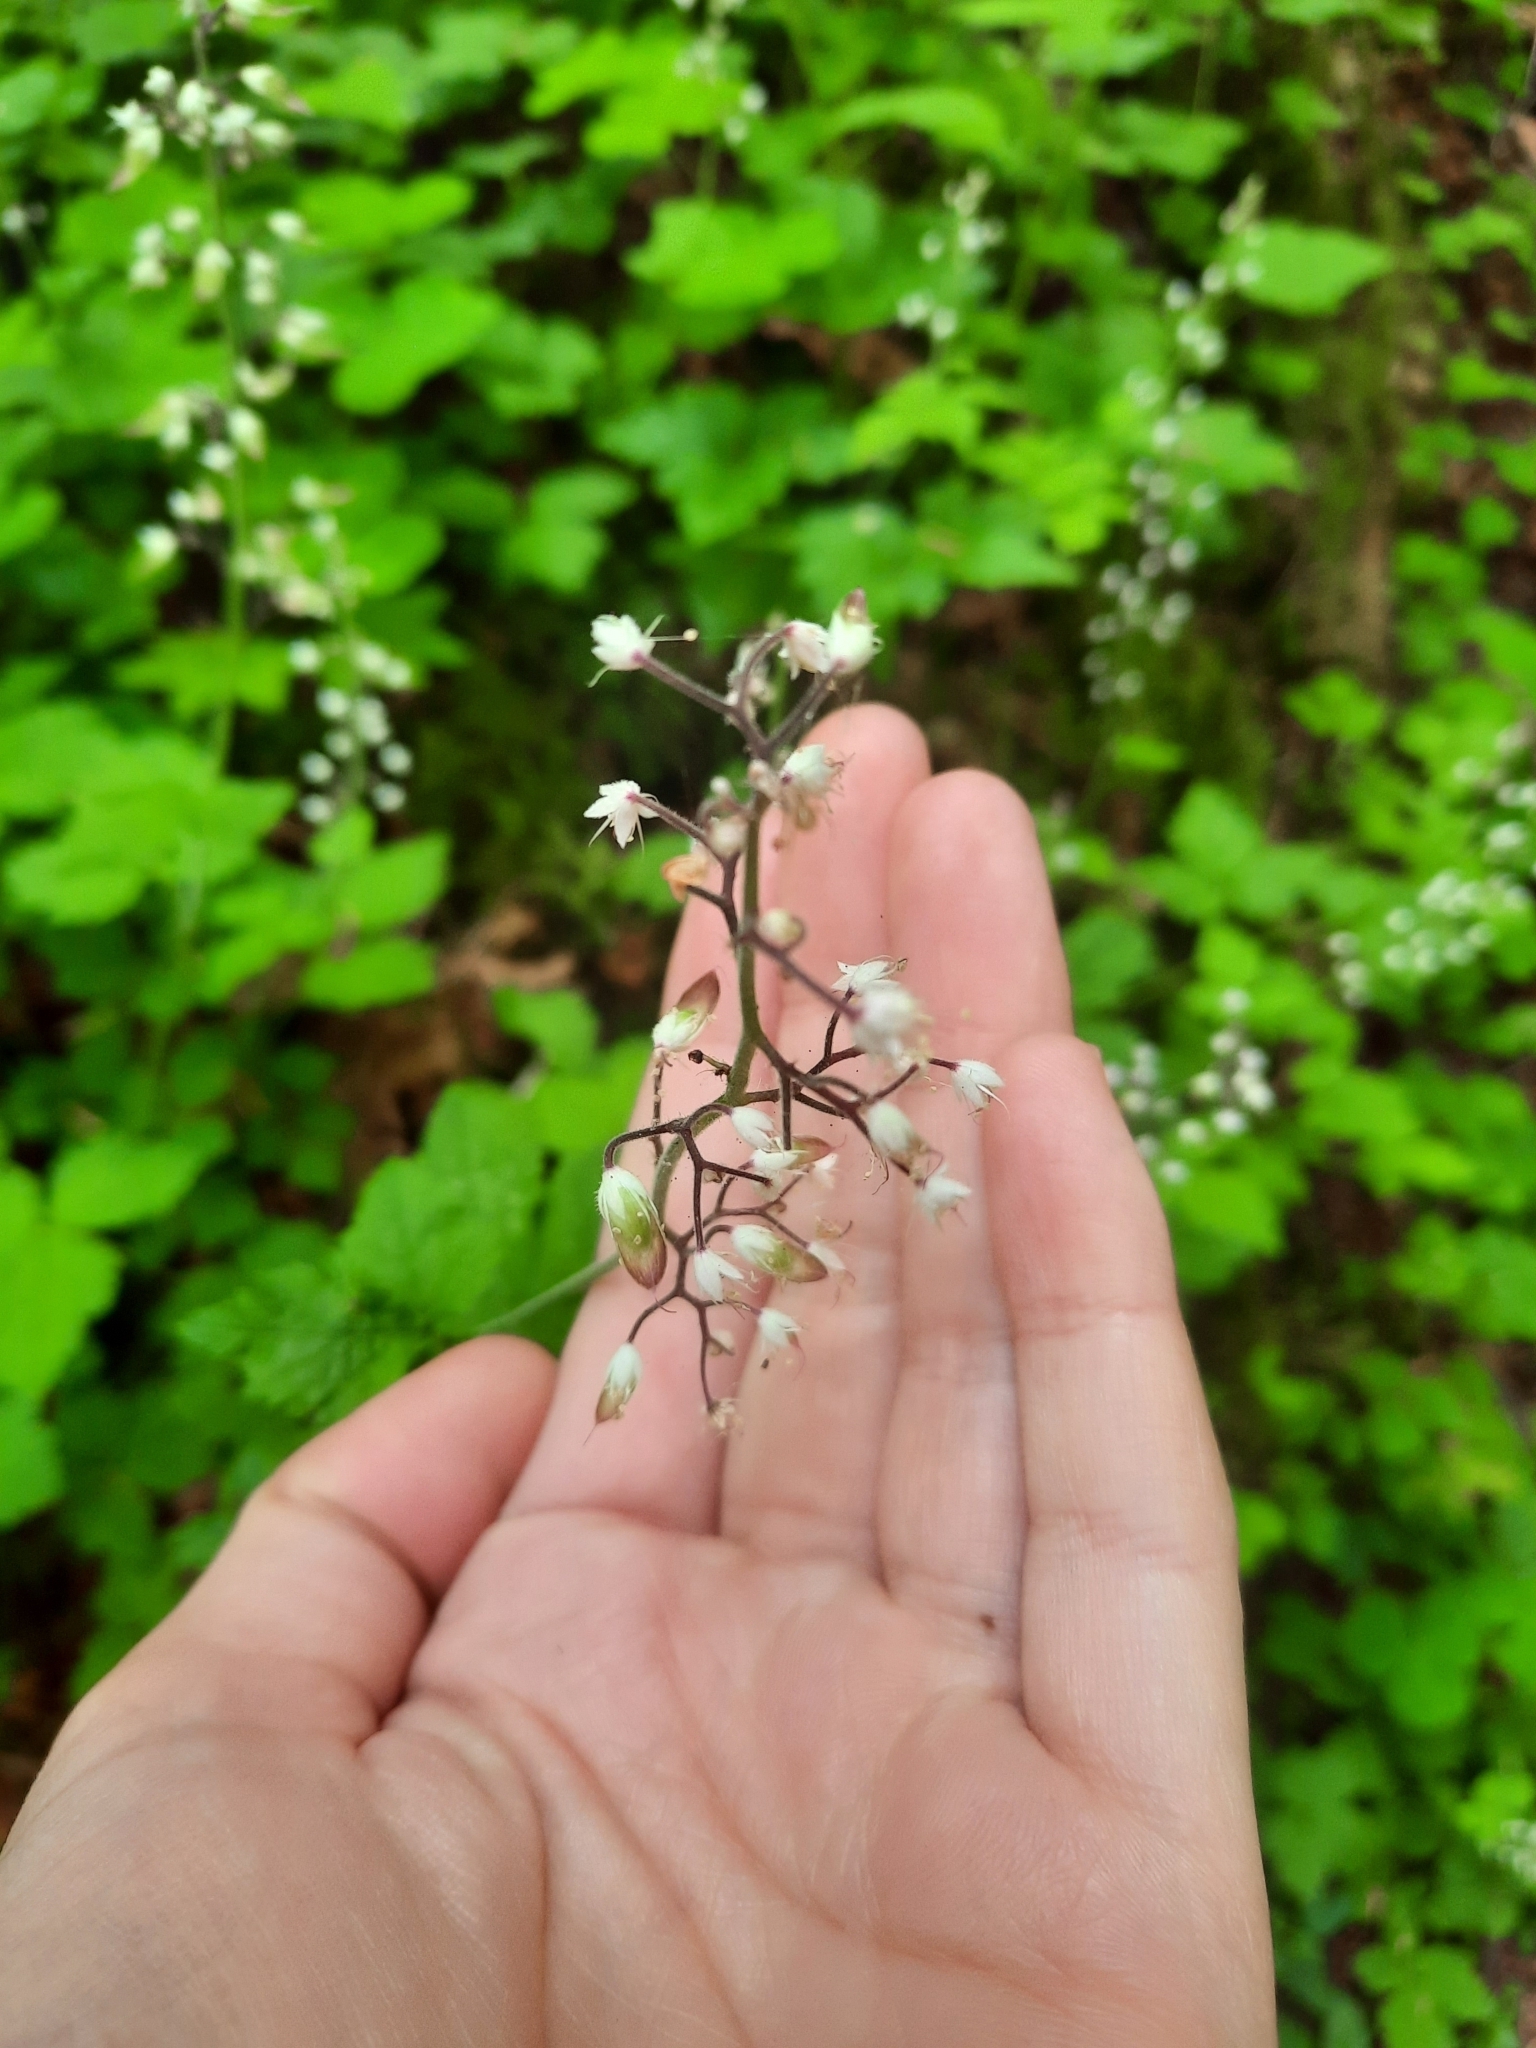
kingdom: Plantae
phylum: Tracheophyta
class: Magnoliopsida
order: Saxifragales
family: Saxifragaceae
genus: Tiarella
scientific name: Tiarella trifoliata
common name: Sugar-scoop
